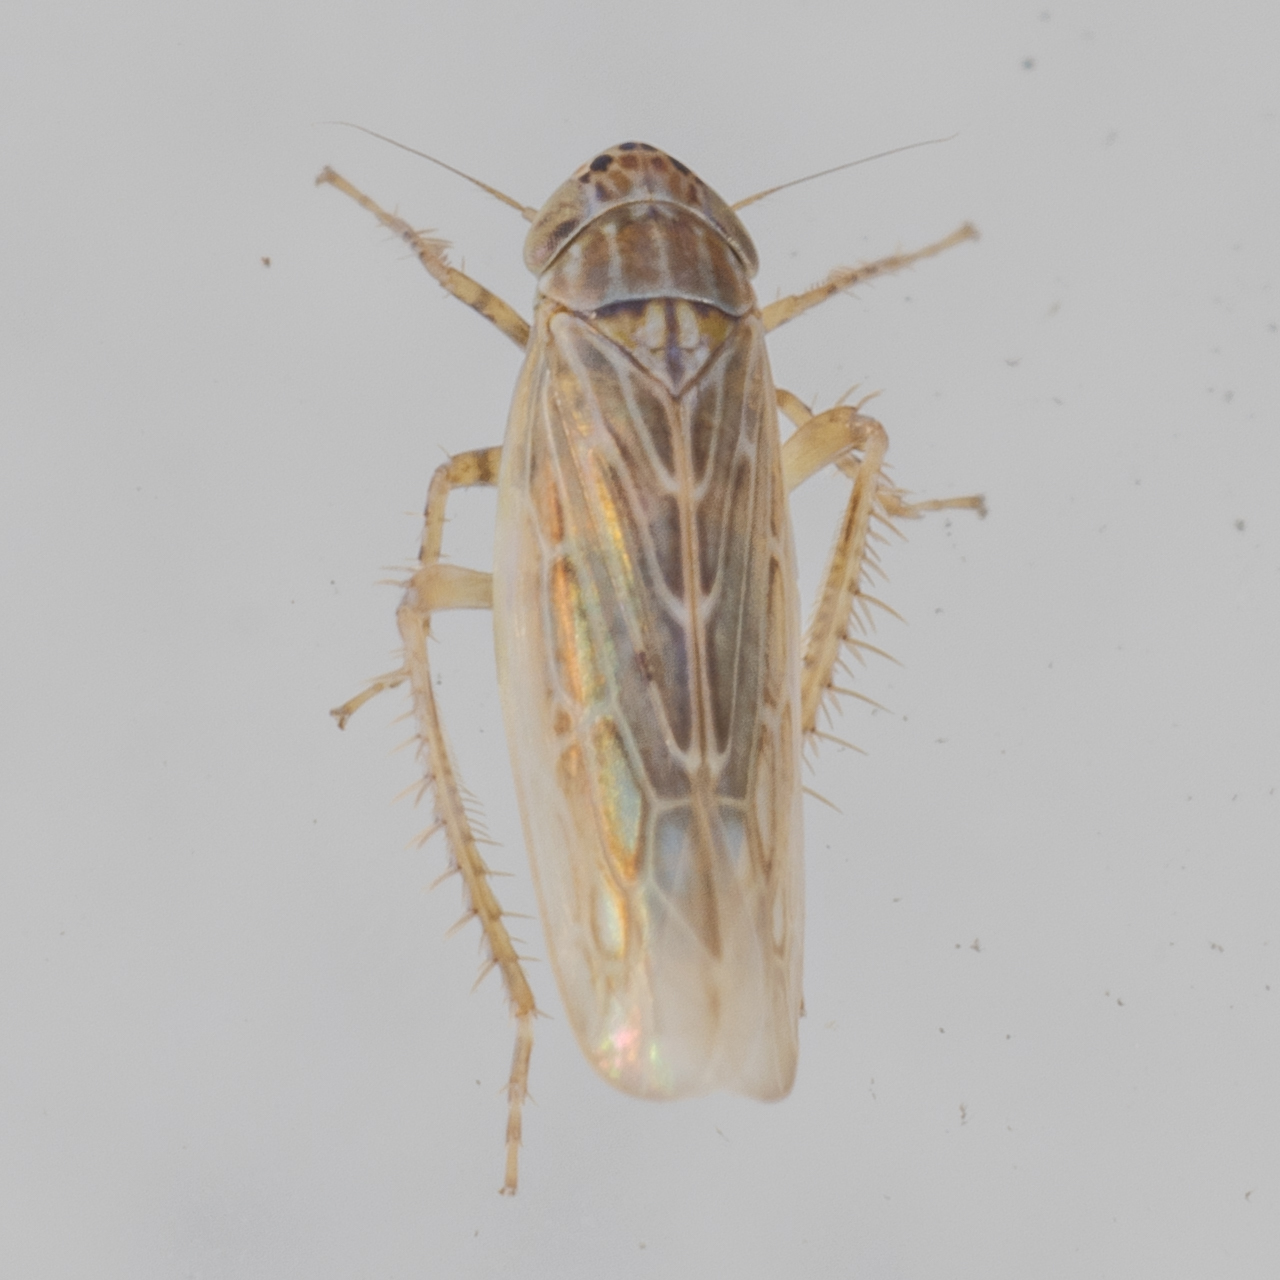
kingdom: Animalia
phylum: Arthropoda
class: Insecta
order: Hemiptera
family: Cicadellidae
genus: Graminella
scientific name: Graminella sonora
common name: Lesser lawn leafhopper
